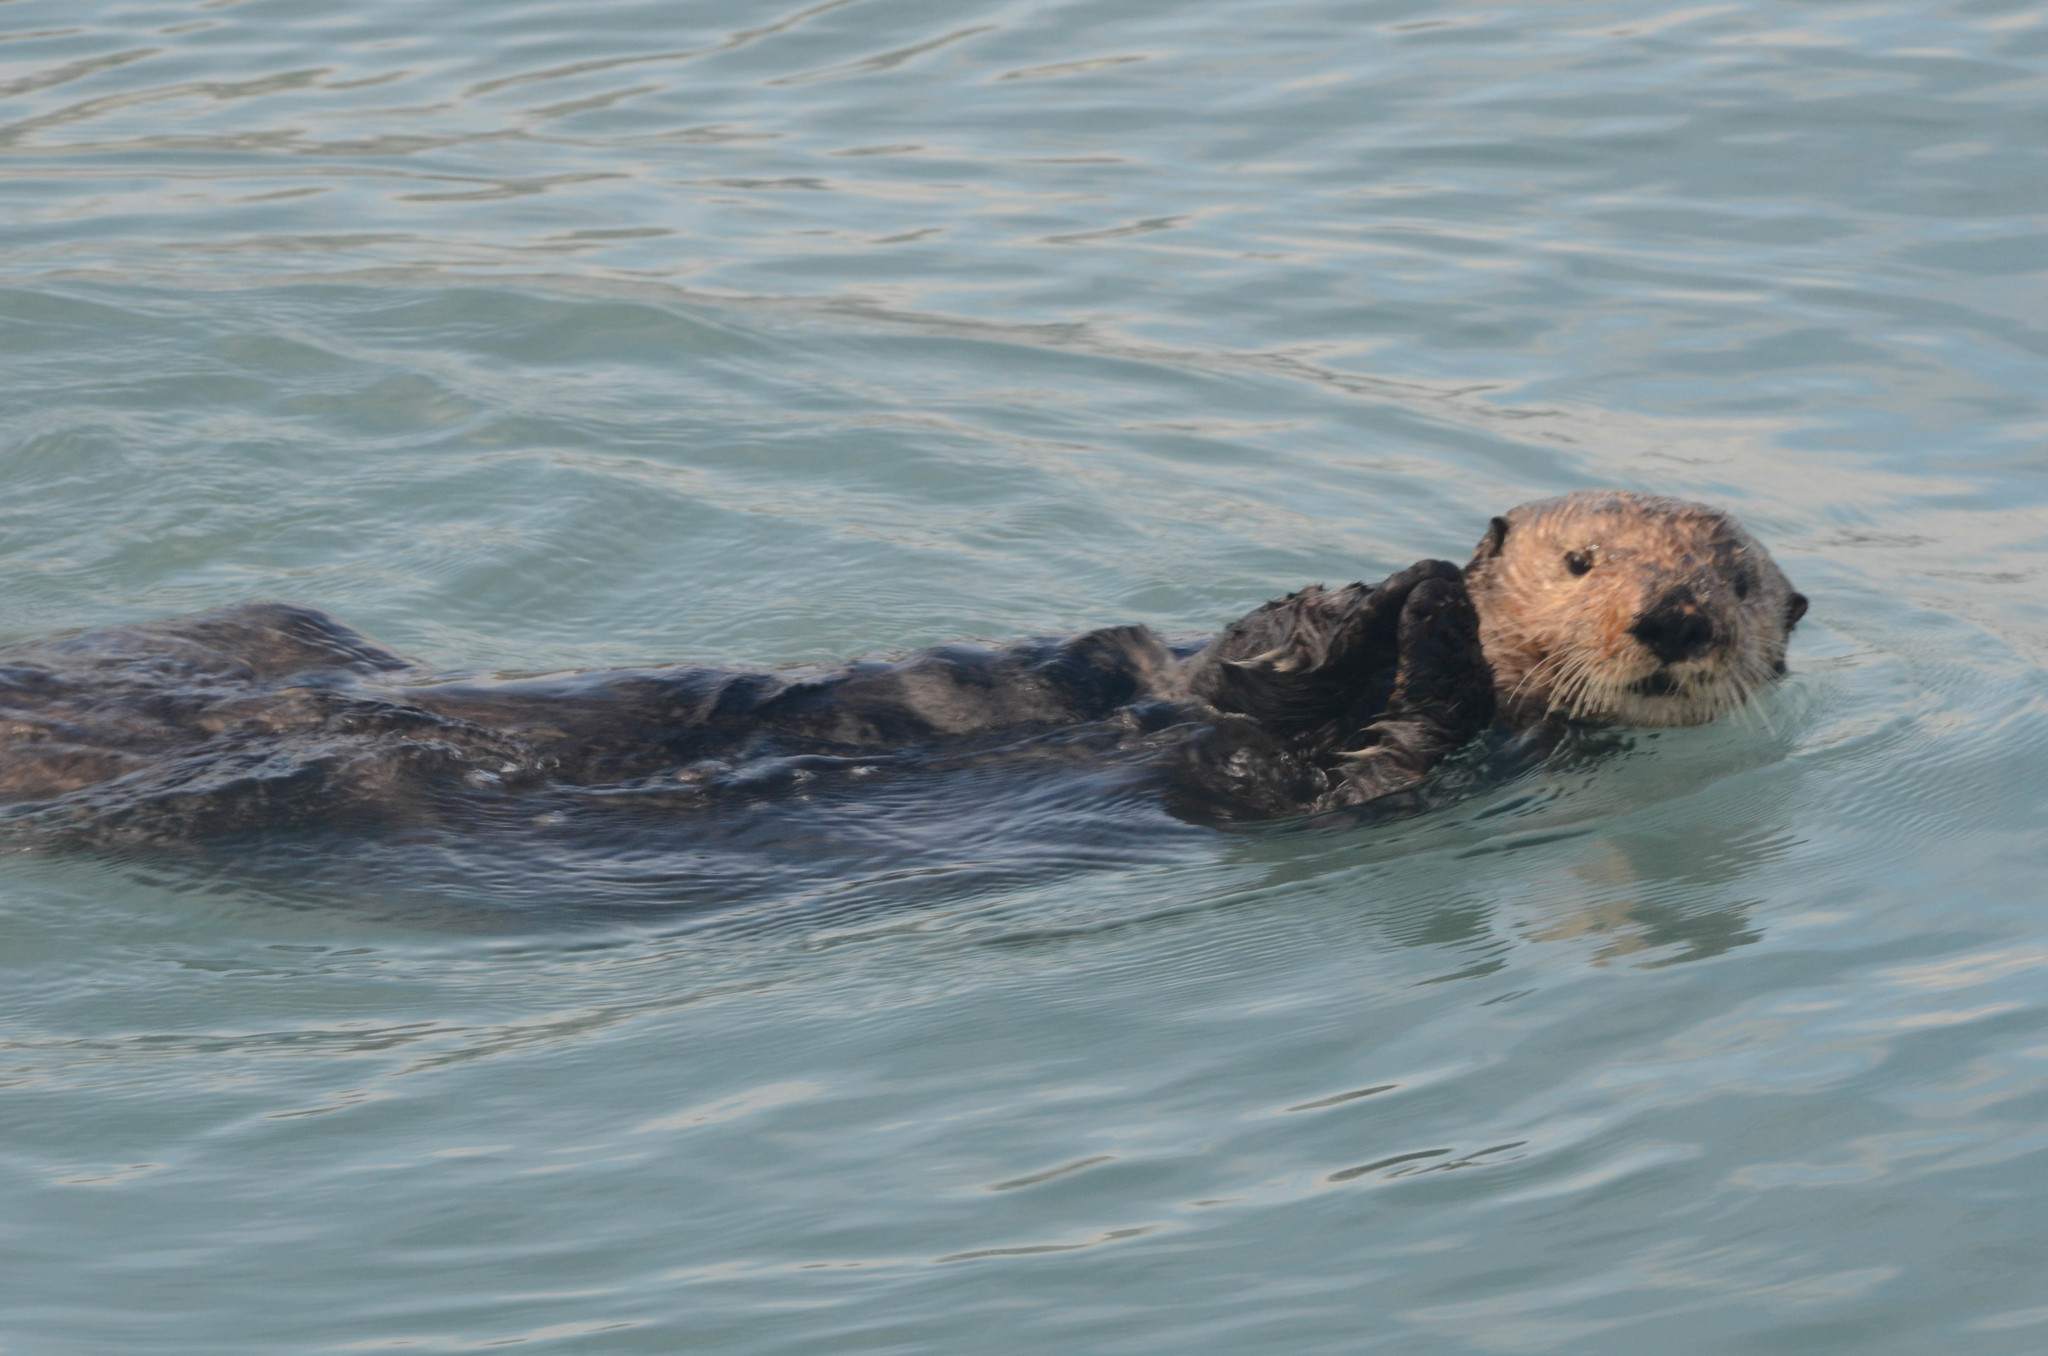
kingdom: Animalia
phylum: Chordata
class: Mammalia
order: Carnivora
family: Mustelidae
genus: Enhydra
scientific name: Enhydra lutris
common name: Sea otter
